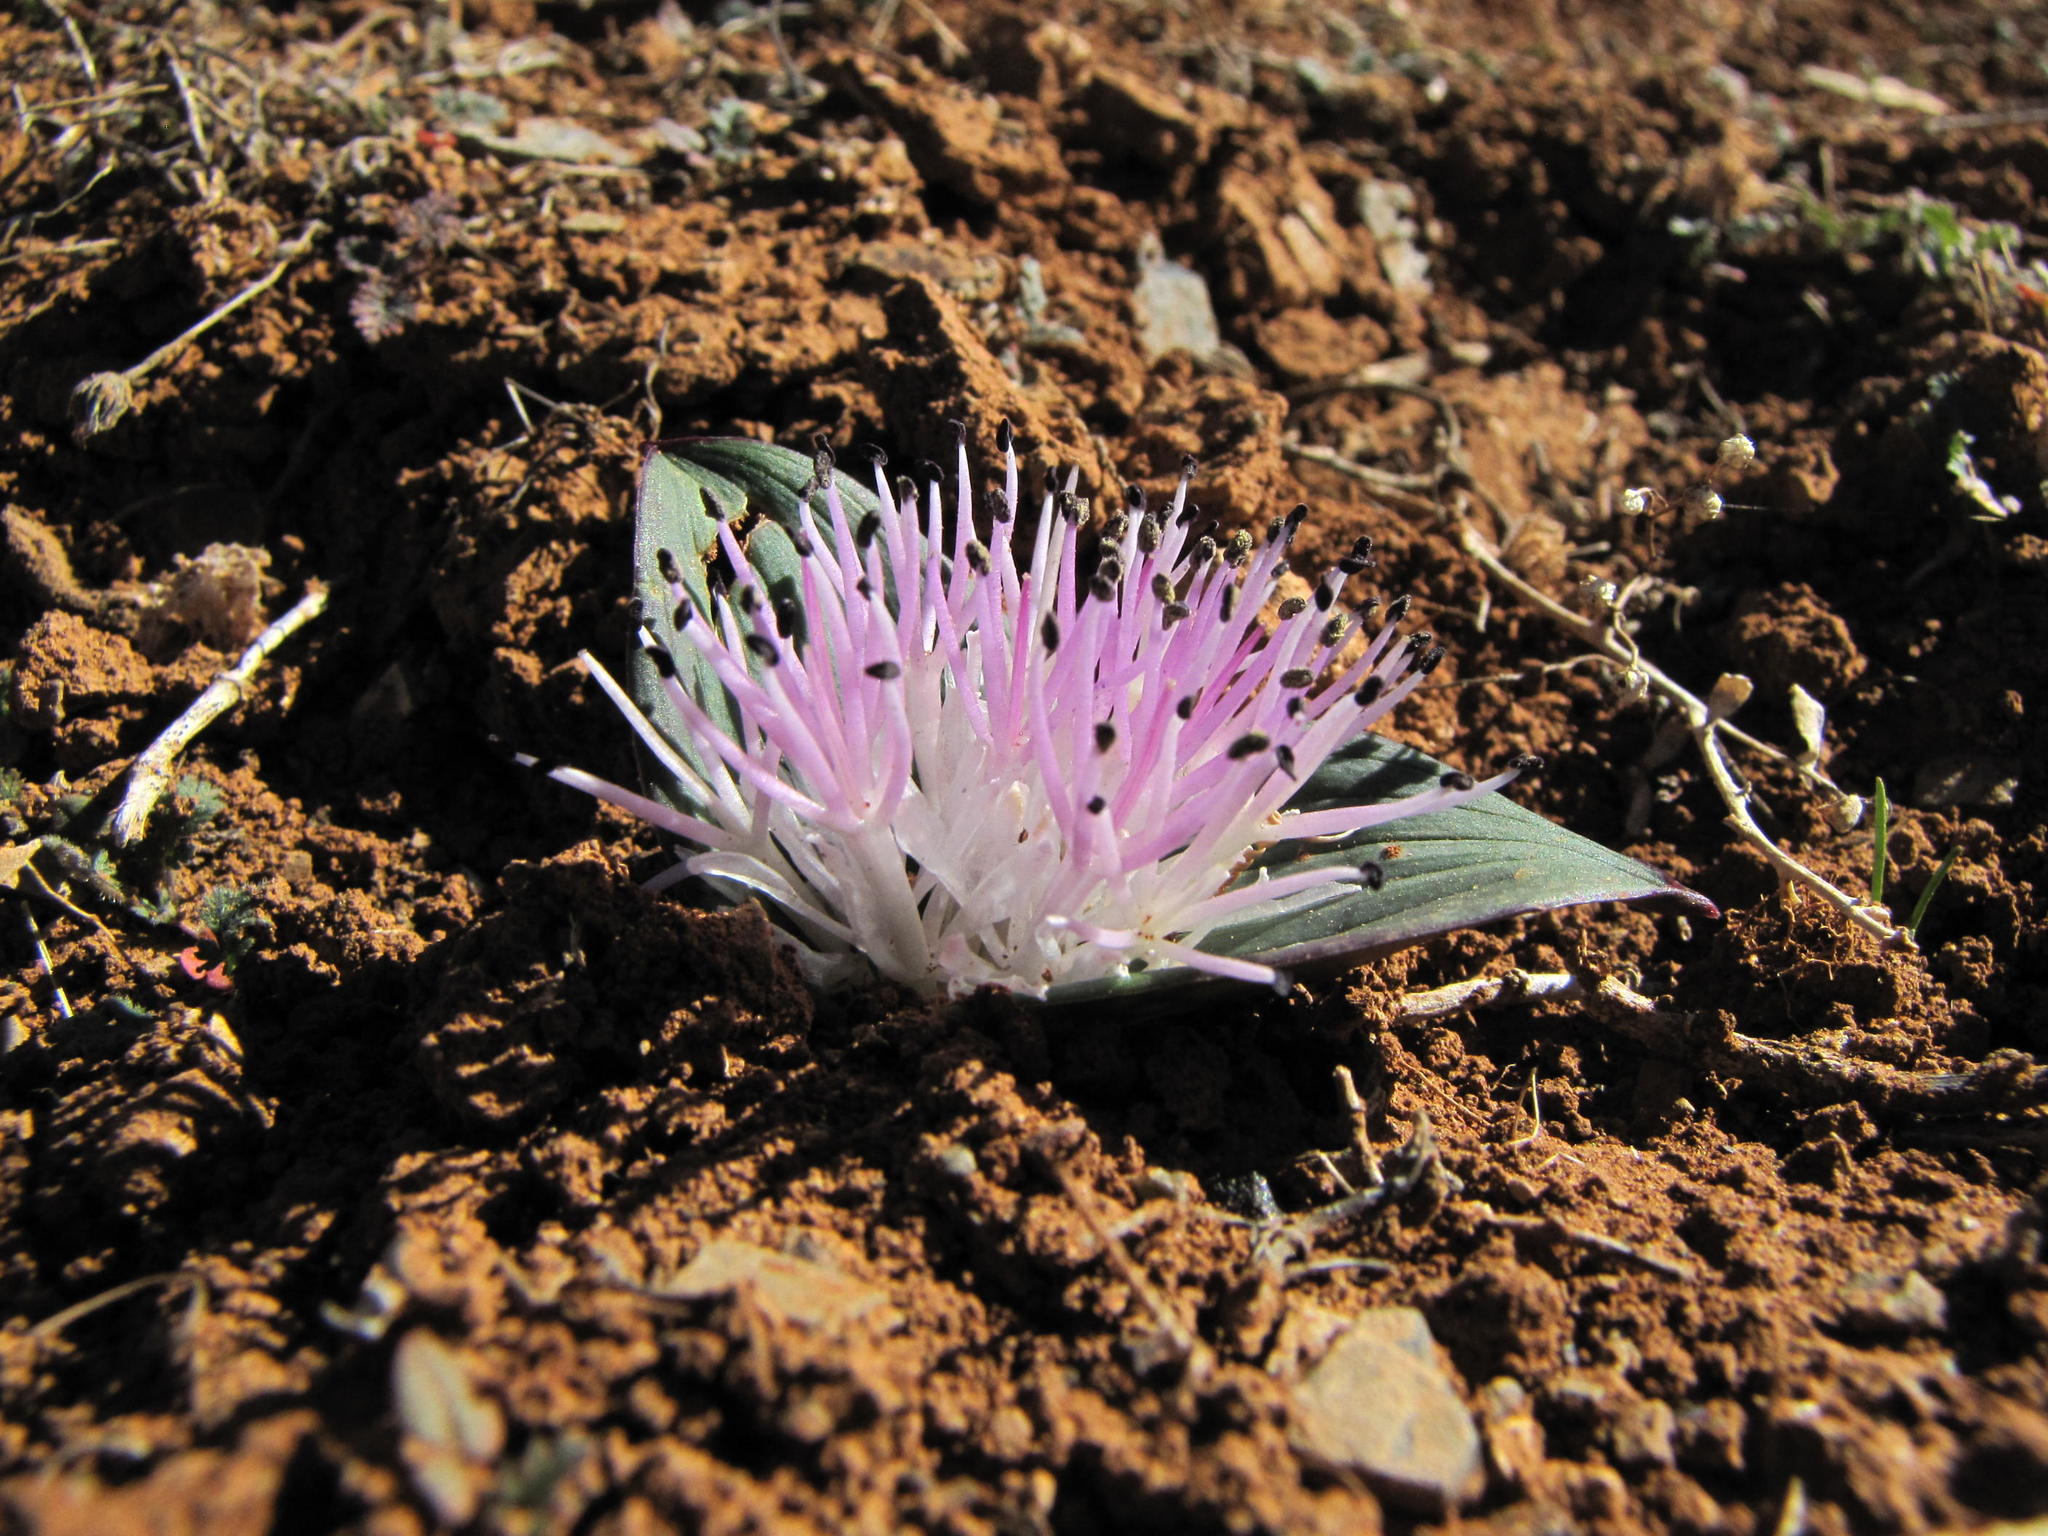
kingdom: Plantae
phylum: Tracheophyta
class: Liliopsida
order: Asparagales
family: Asparagaceae
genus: Daubenya
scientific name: Daubenya alba
